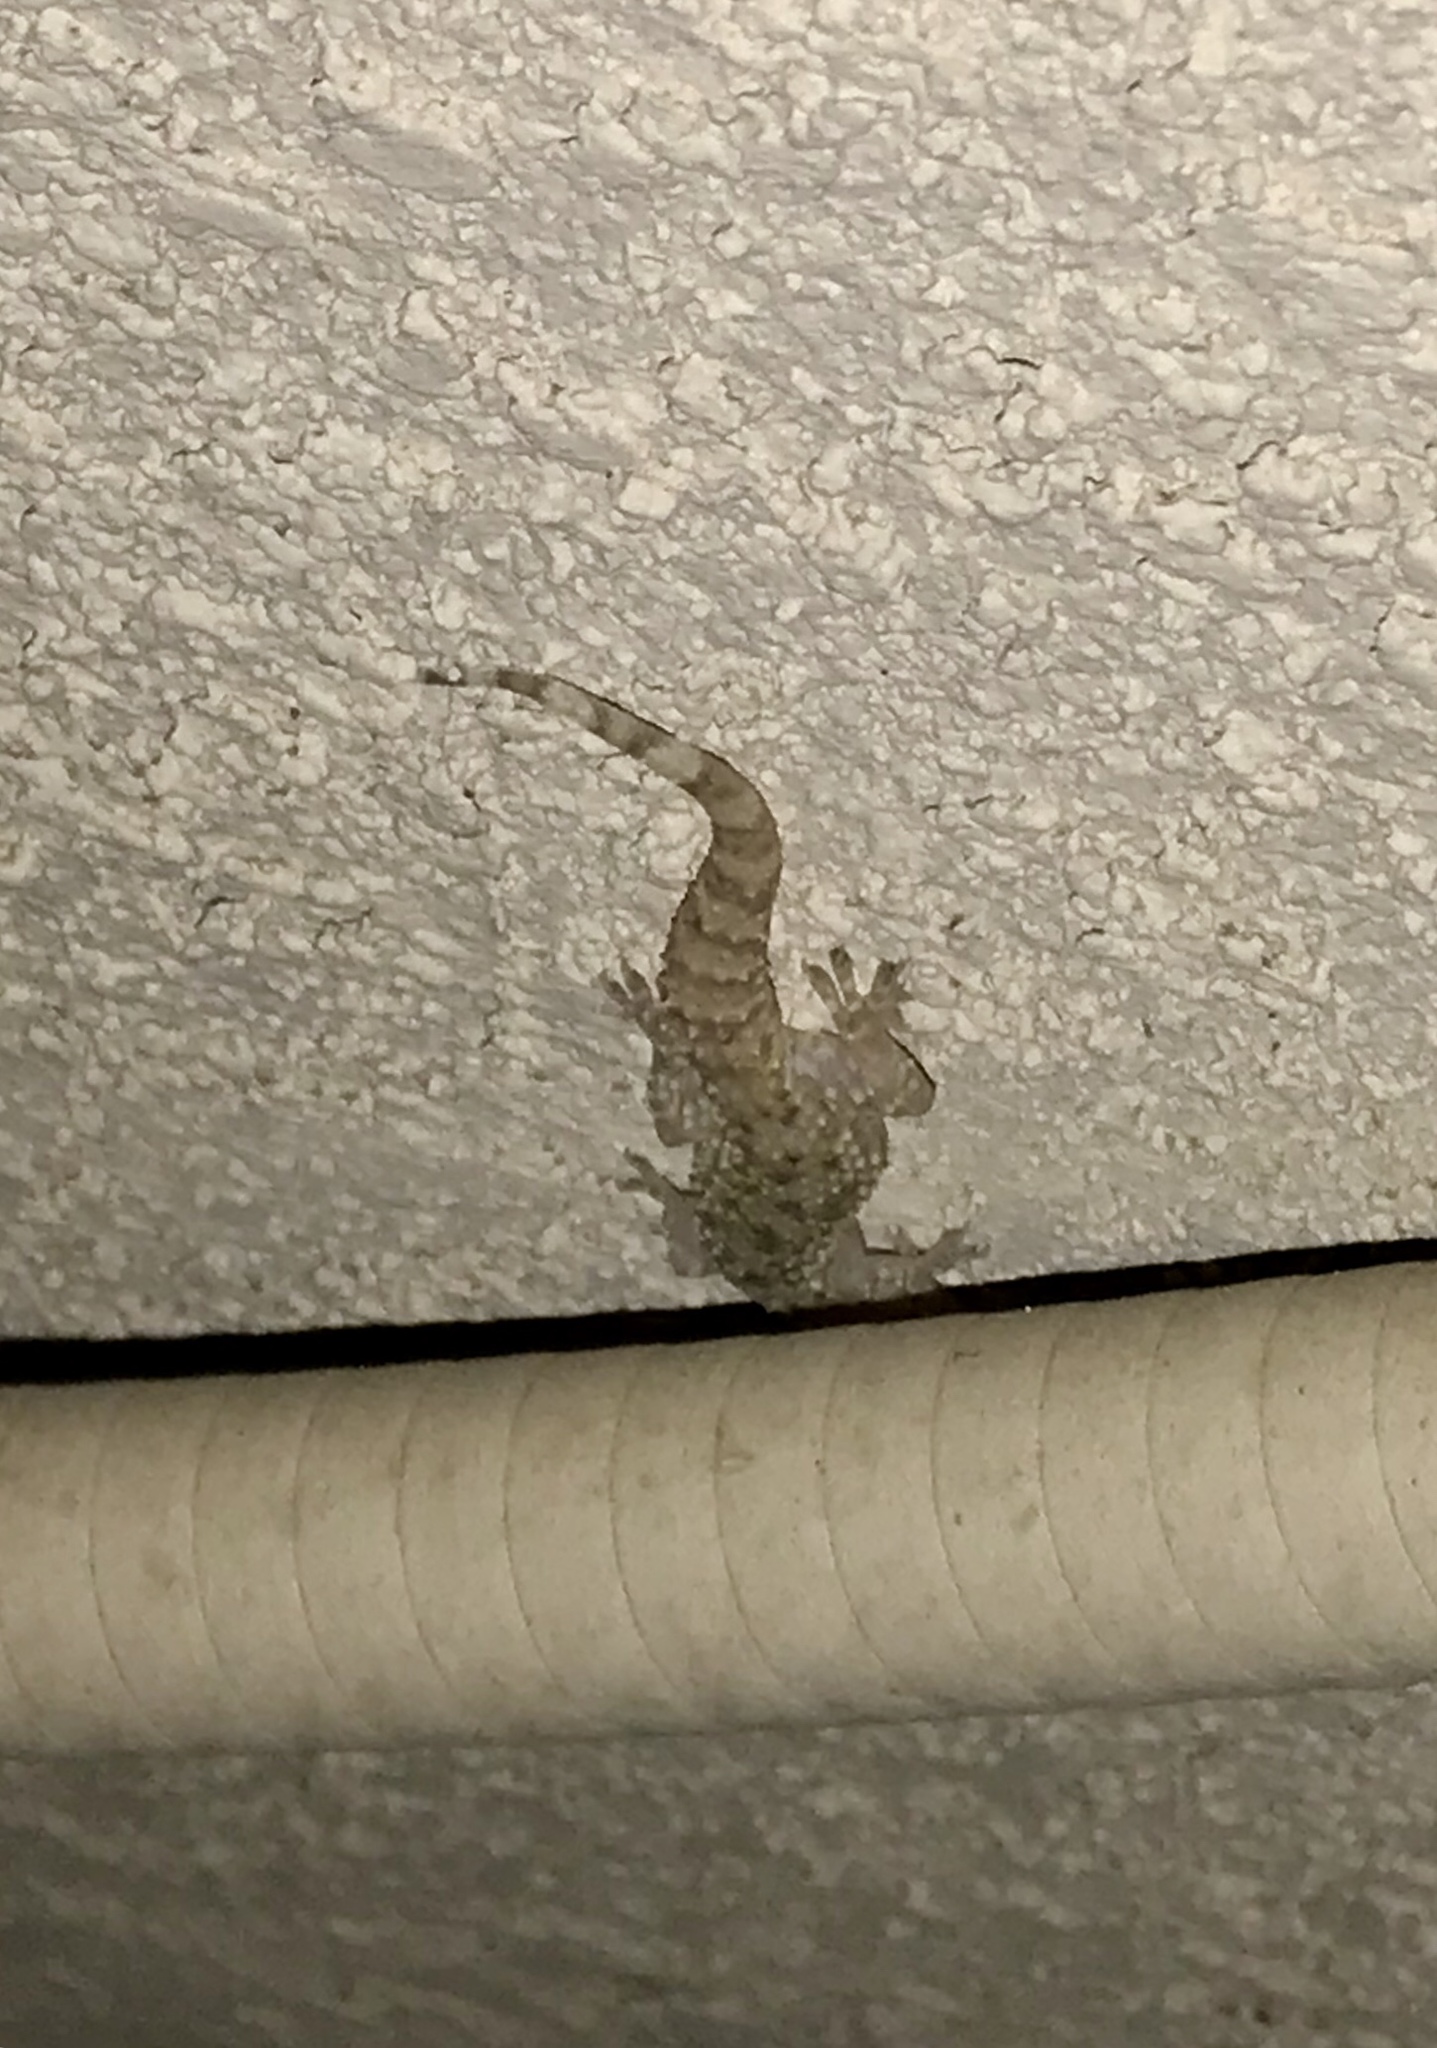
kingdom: Animalia
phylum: Chordata
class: Squamata
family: Gekkonidae
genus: Hemidactylus
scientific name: Hemidactylus turcicus
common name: Turkish gecko
